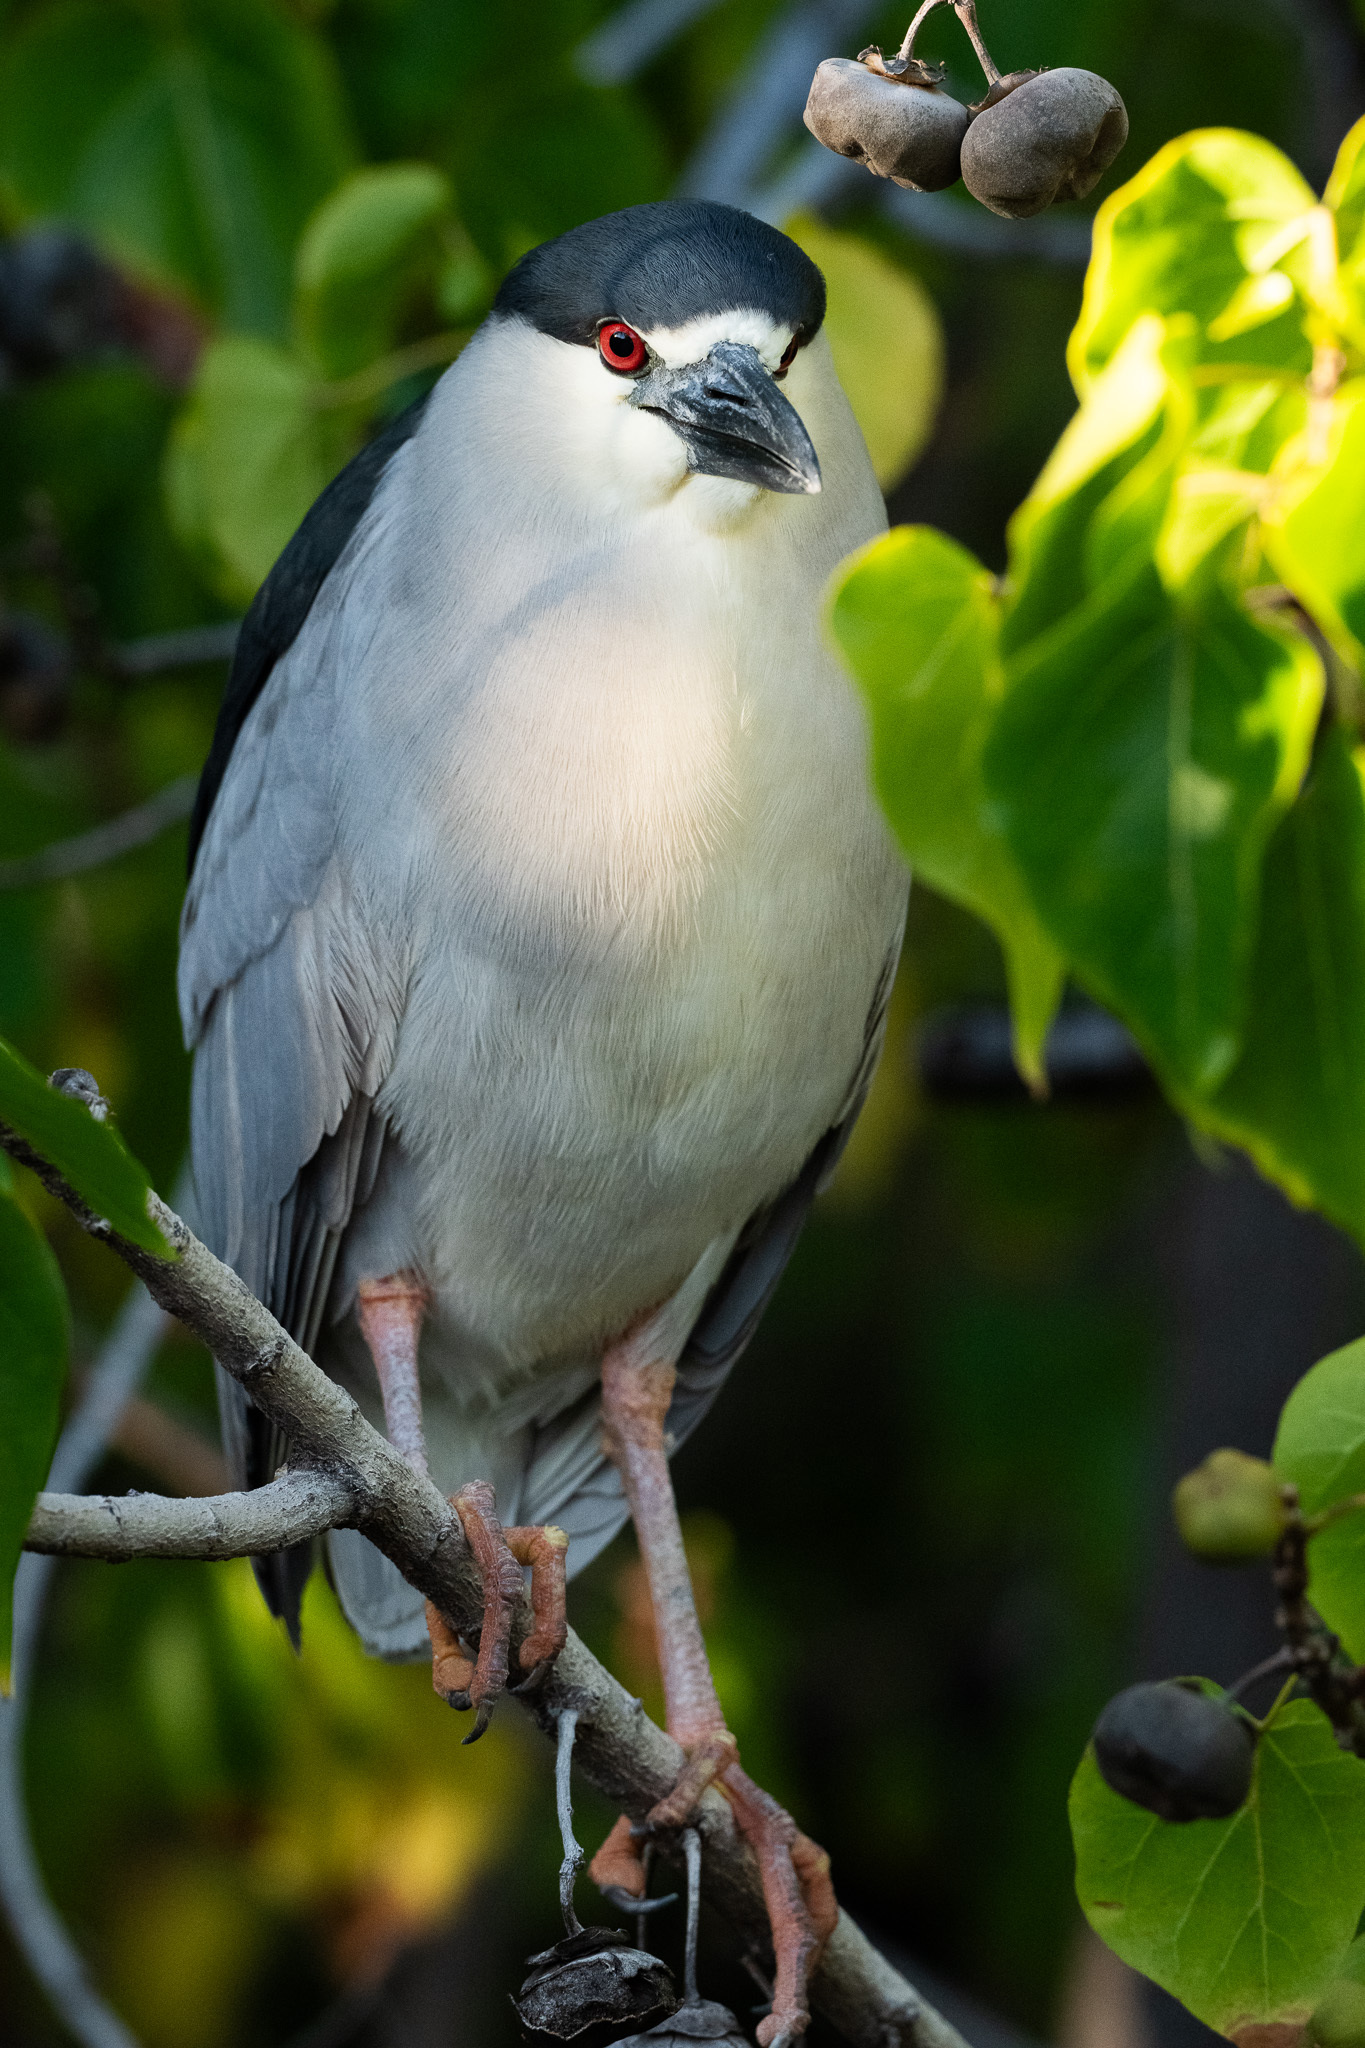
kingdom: Animalia
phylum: Chordata
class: Aves
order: Pelecaniformes
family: Ardeidae
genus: Nycticorax
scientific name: Nycticorax nycticorax
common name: Black-crowned night heron
